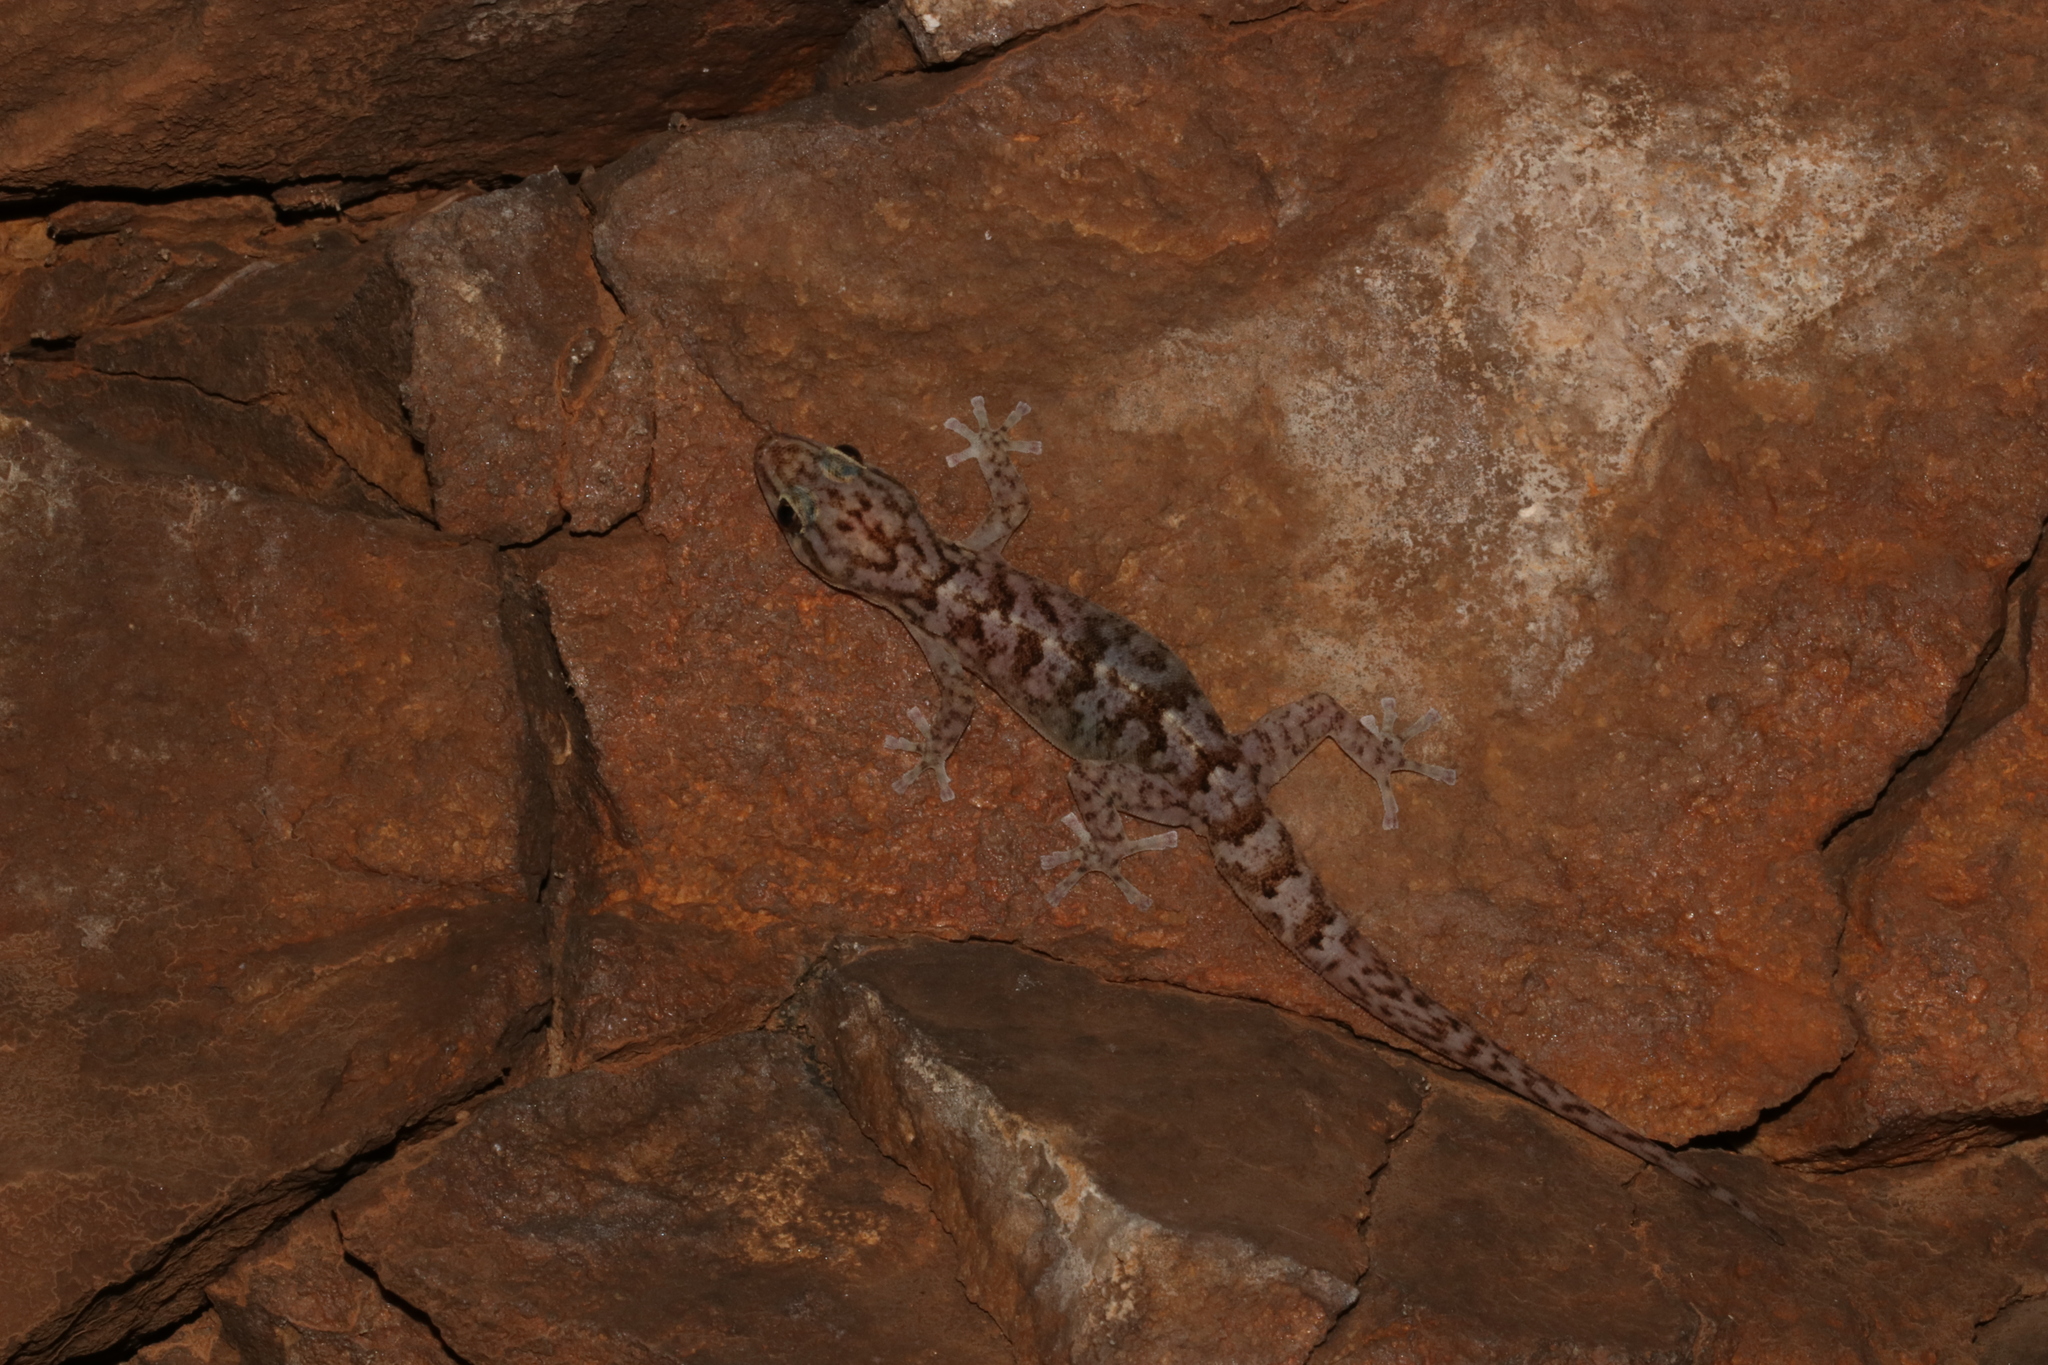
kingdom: Animalia
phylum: Chordata
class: Squamata
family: Gekkonidae
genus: Afroedura
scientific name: Afroedura pienaari
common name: Pienaar’s rock gecko
